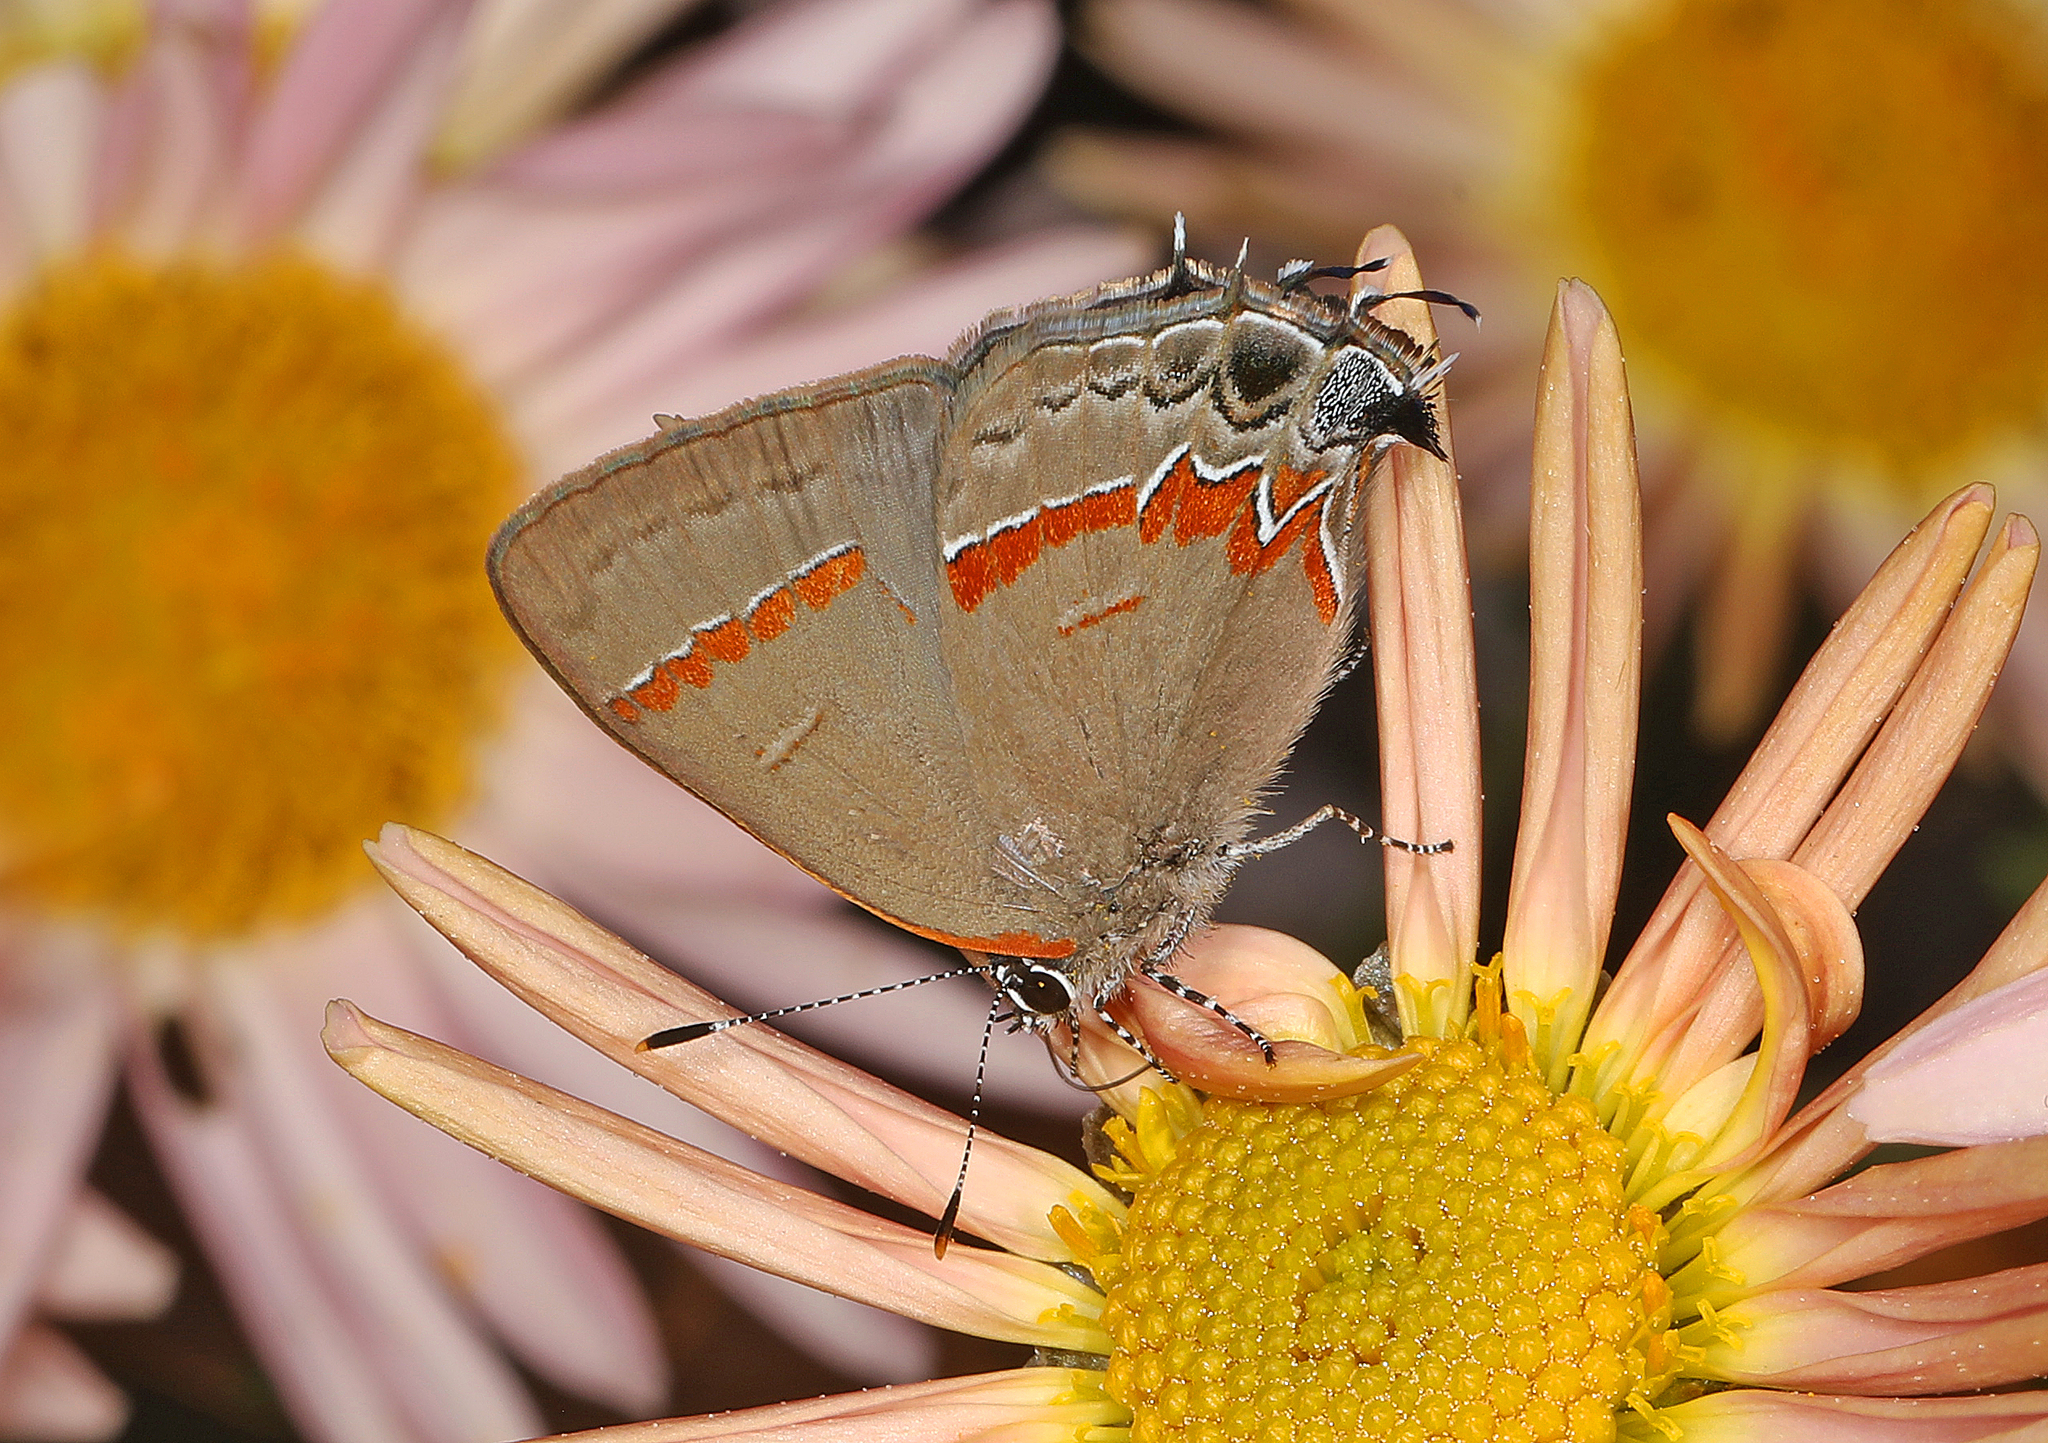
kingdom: Animalia
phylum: Arthropoda
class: Insecta
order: Lepidoptera
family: Lycaenidae
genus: Calycopis
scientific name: Calycopis cecrops
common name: Red-banded hairstreak
